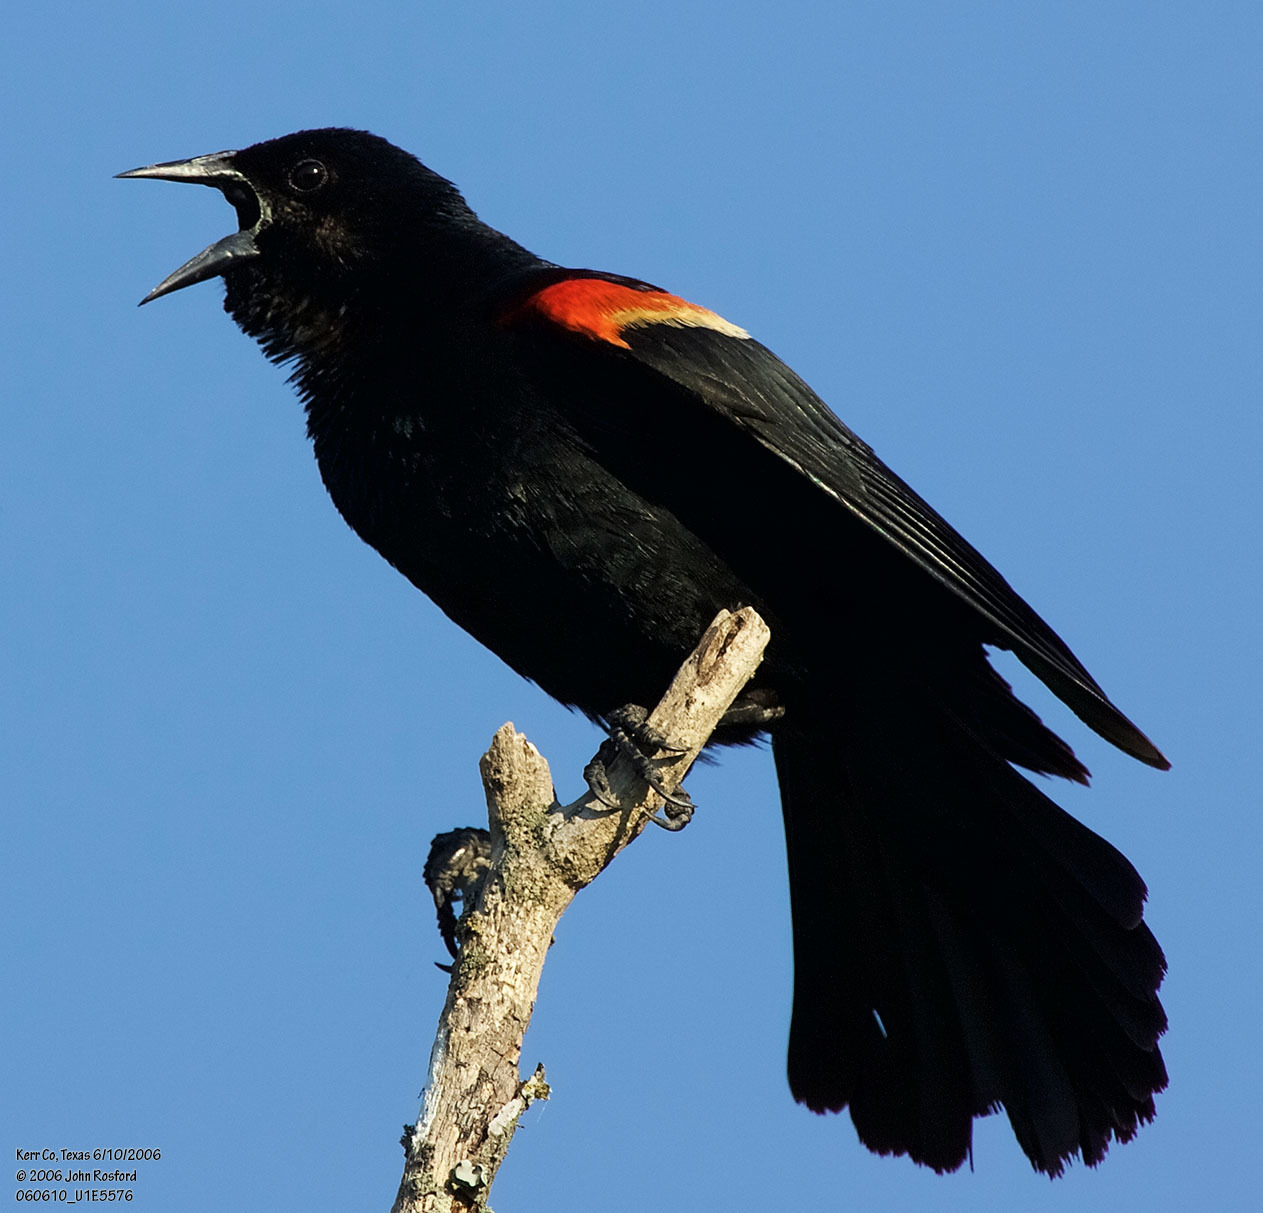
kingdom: Animalia
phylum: Chordata
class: Aves
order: Passeriformes
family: Icteridae
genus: Agelaius
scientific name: Agelaius phoeniceus
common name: Red-winged blackbird
